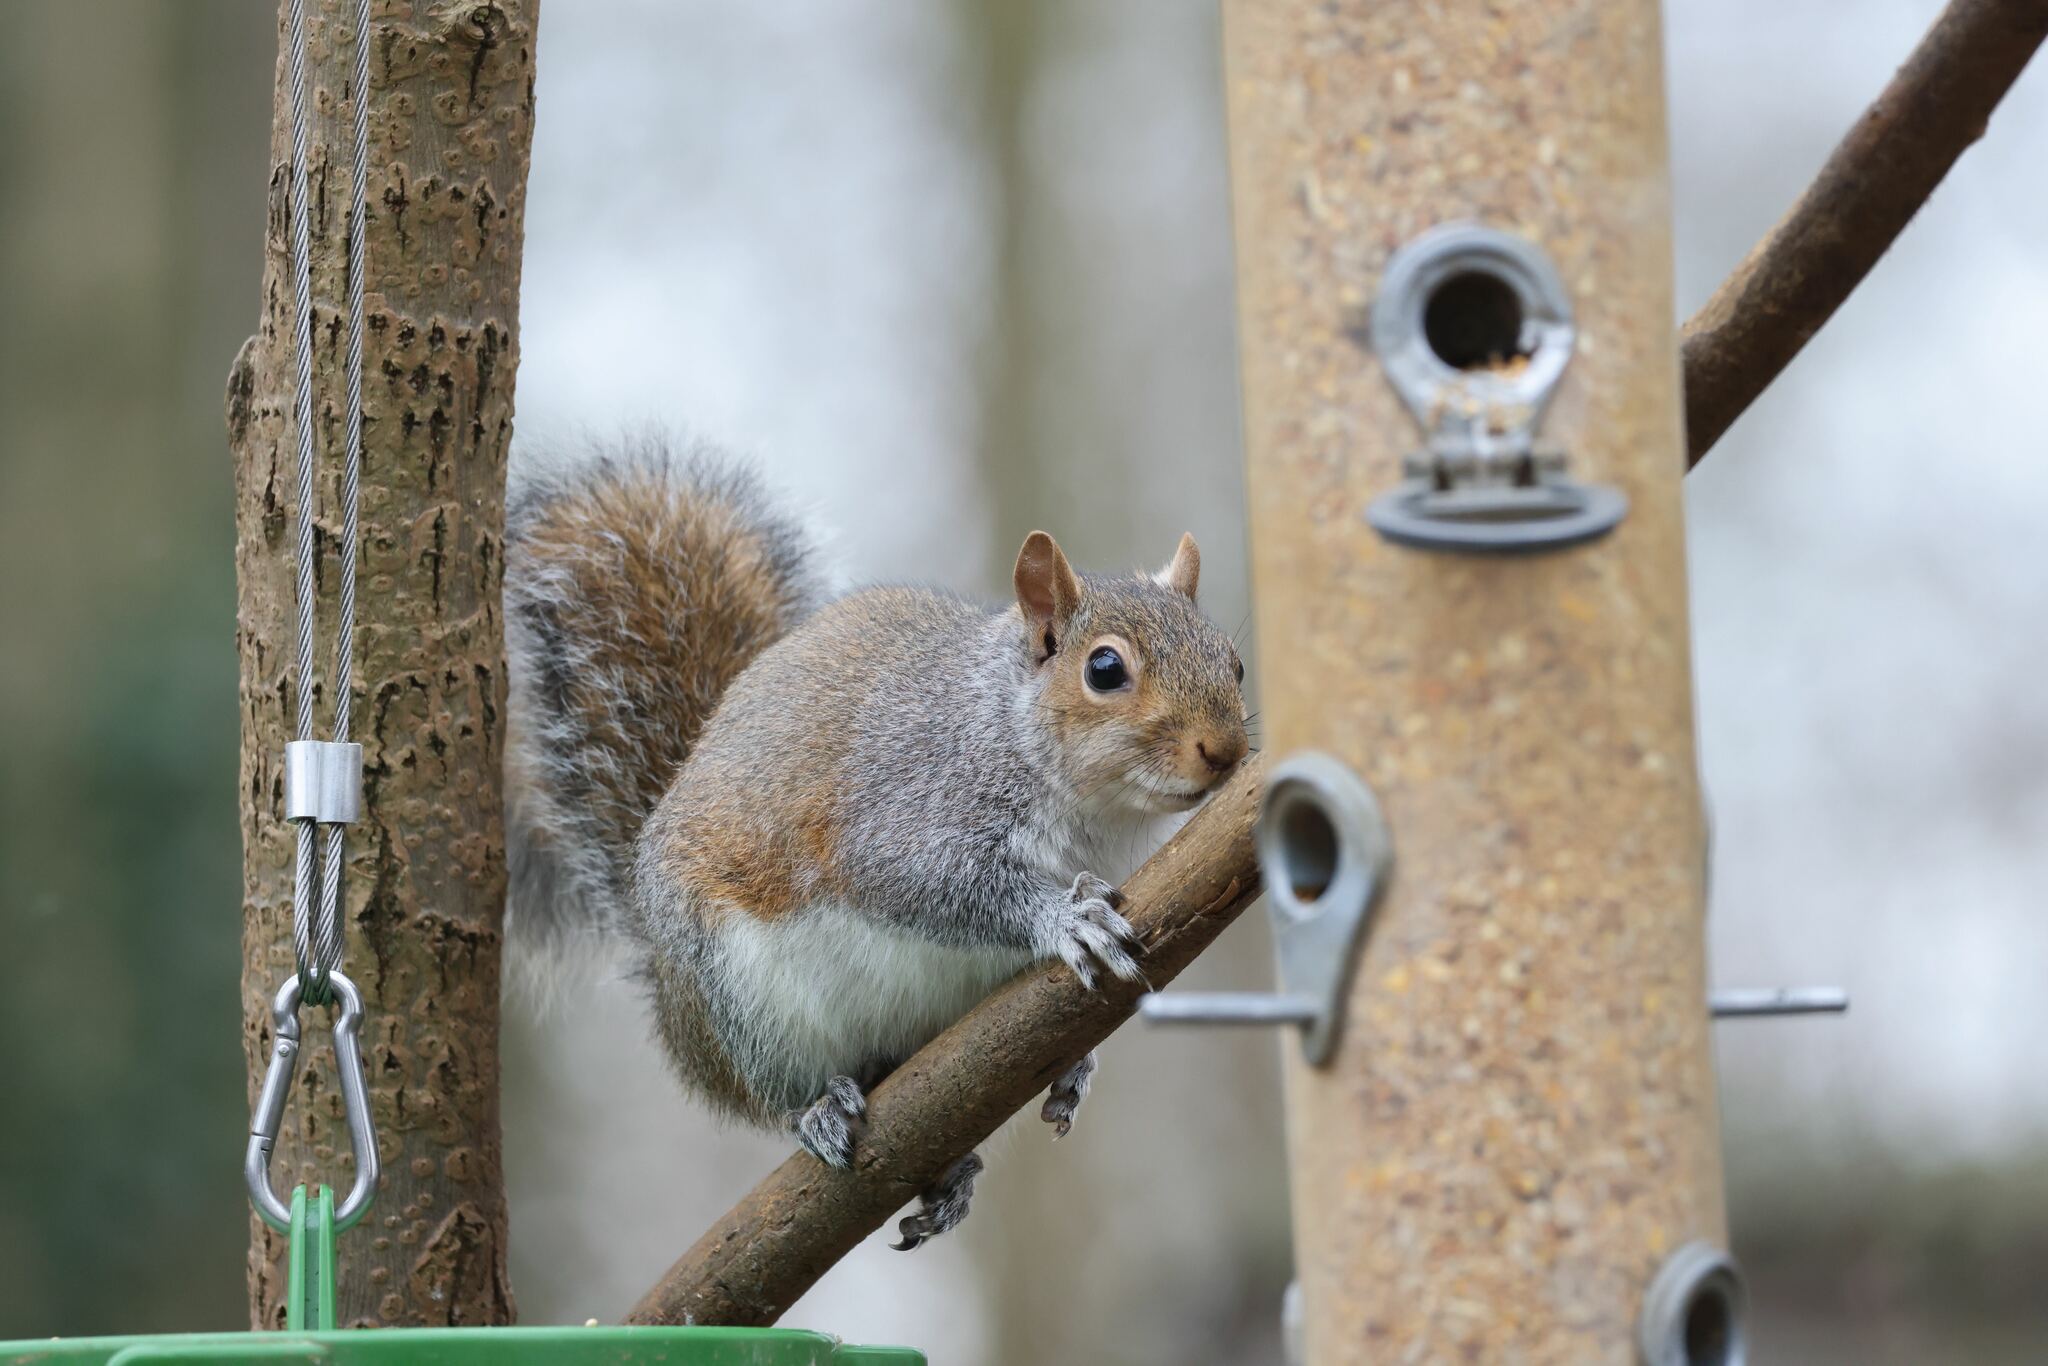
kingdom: Animalia
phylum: Chordata
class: Mammalia
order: Rodentia
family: Sciuridae
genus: Sciurus
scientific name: Sciurus carolinensis
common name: Eastern gray squirrel
